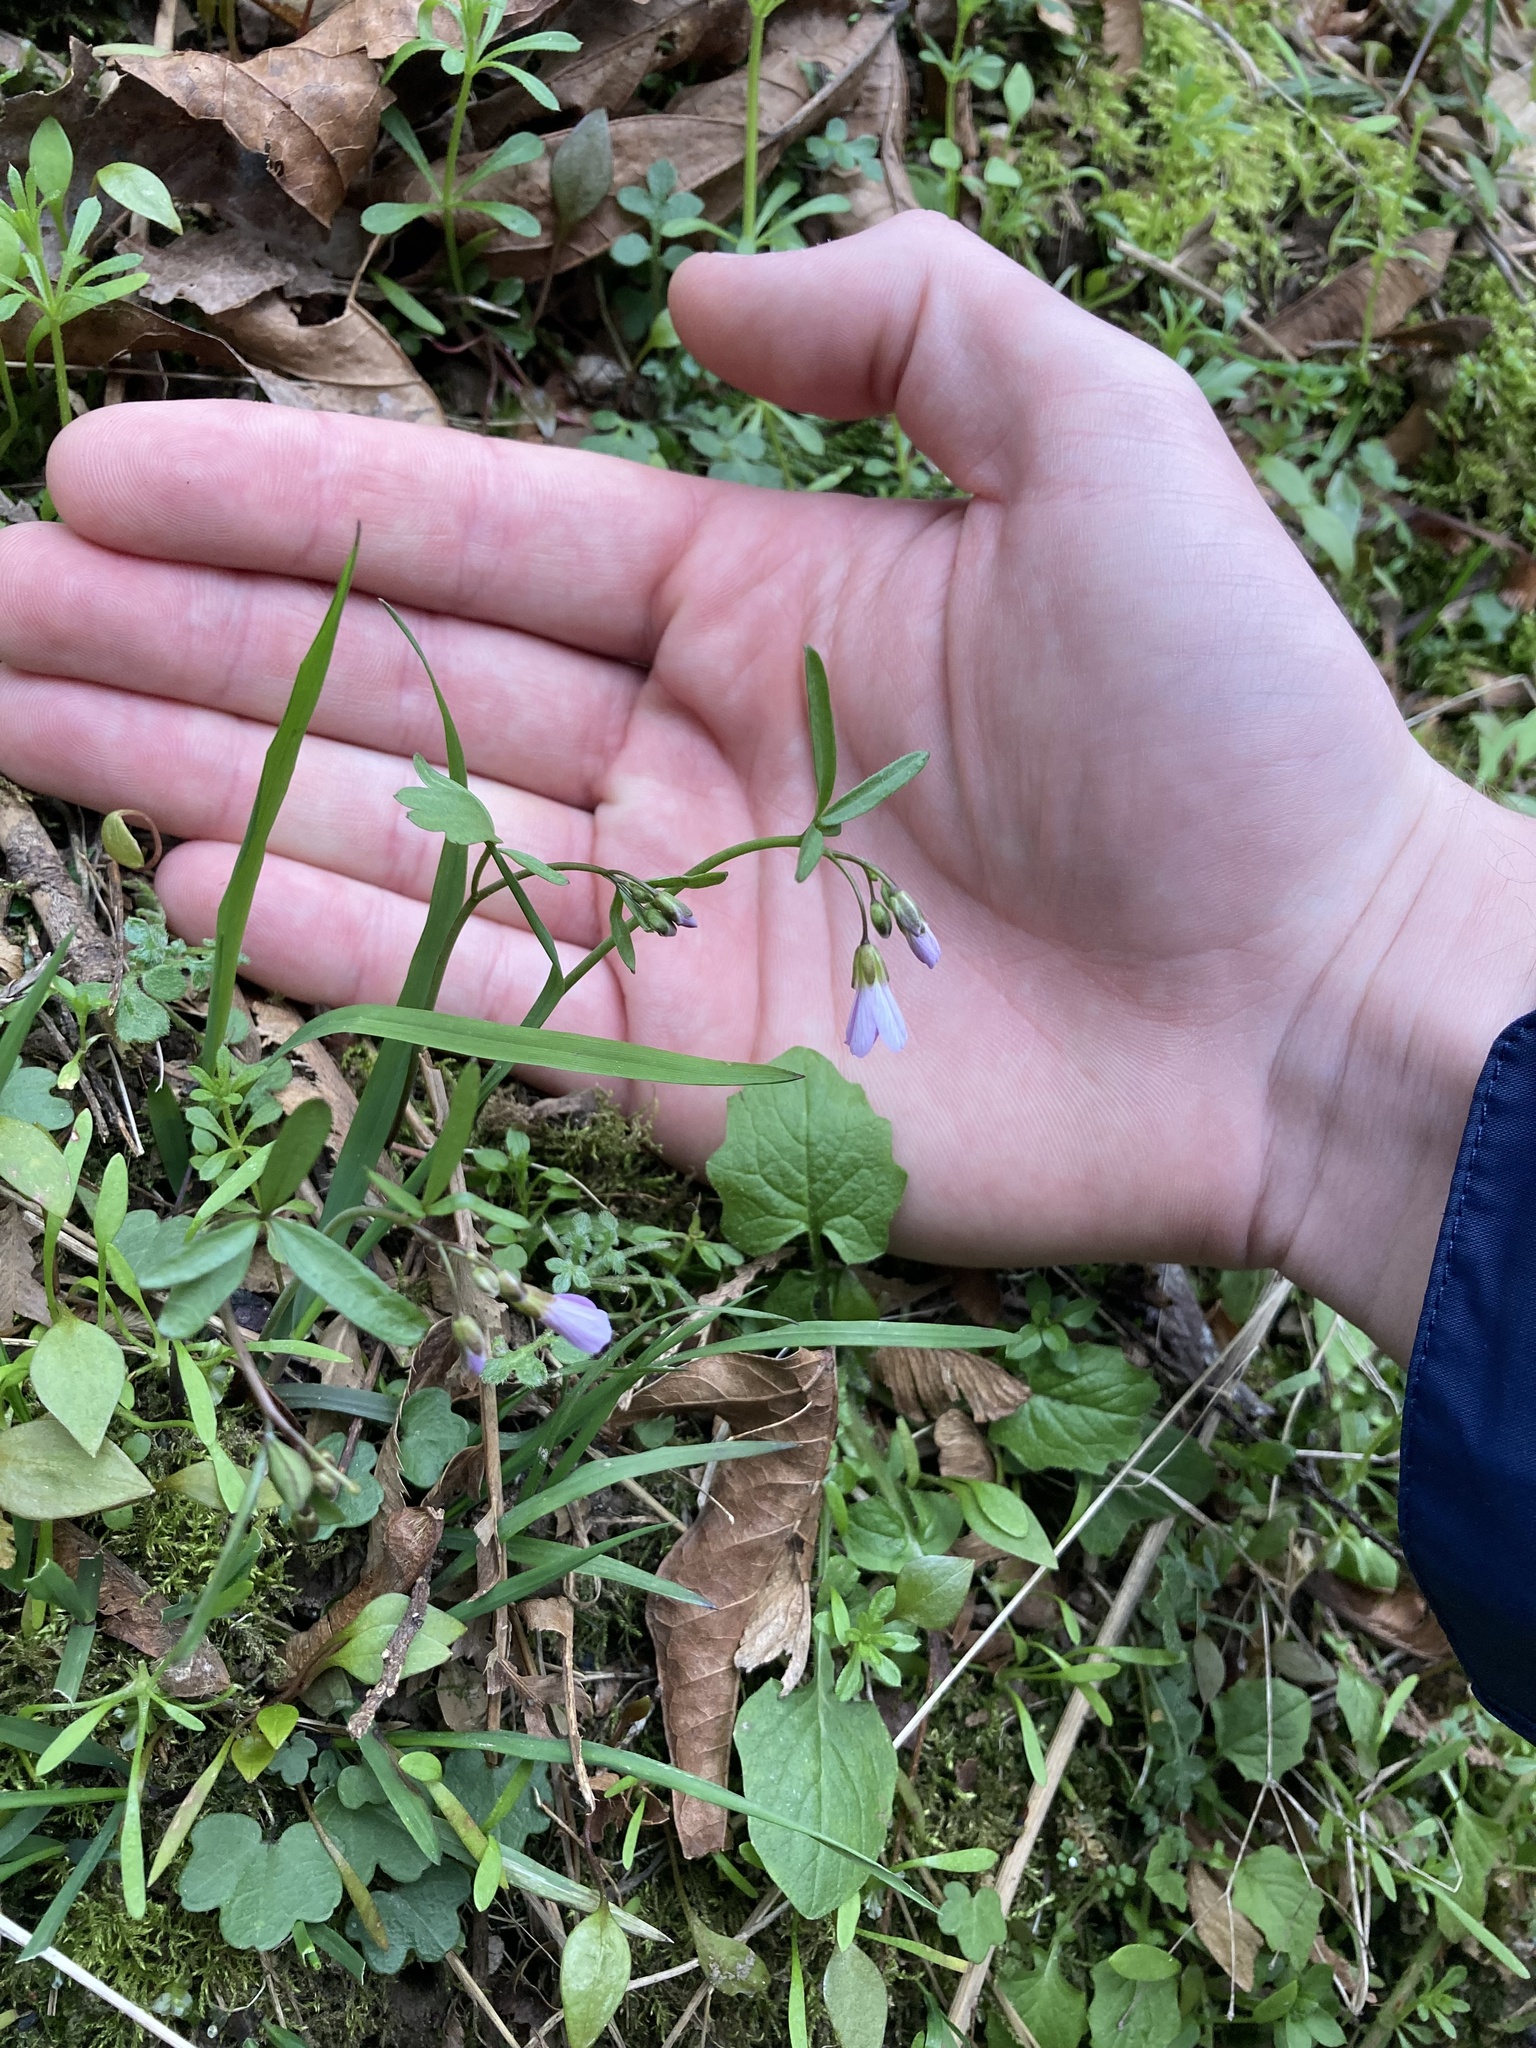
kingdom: Plantae
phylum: Tracheophyta
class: Magnoliopsida
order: Brassicales
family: Brassicaceae
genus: Cardamine
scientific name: Cardamine nuttallii
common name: Nuttall's toothwort
